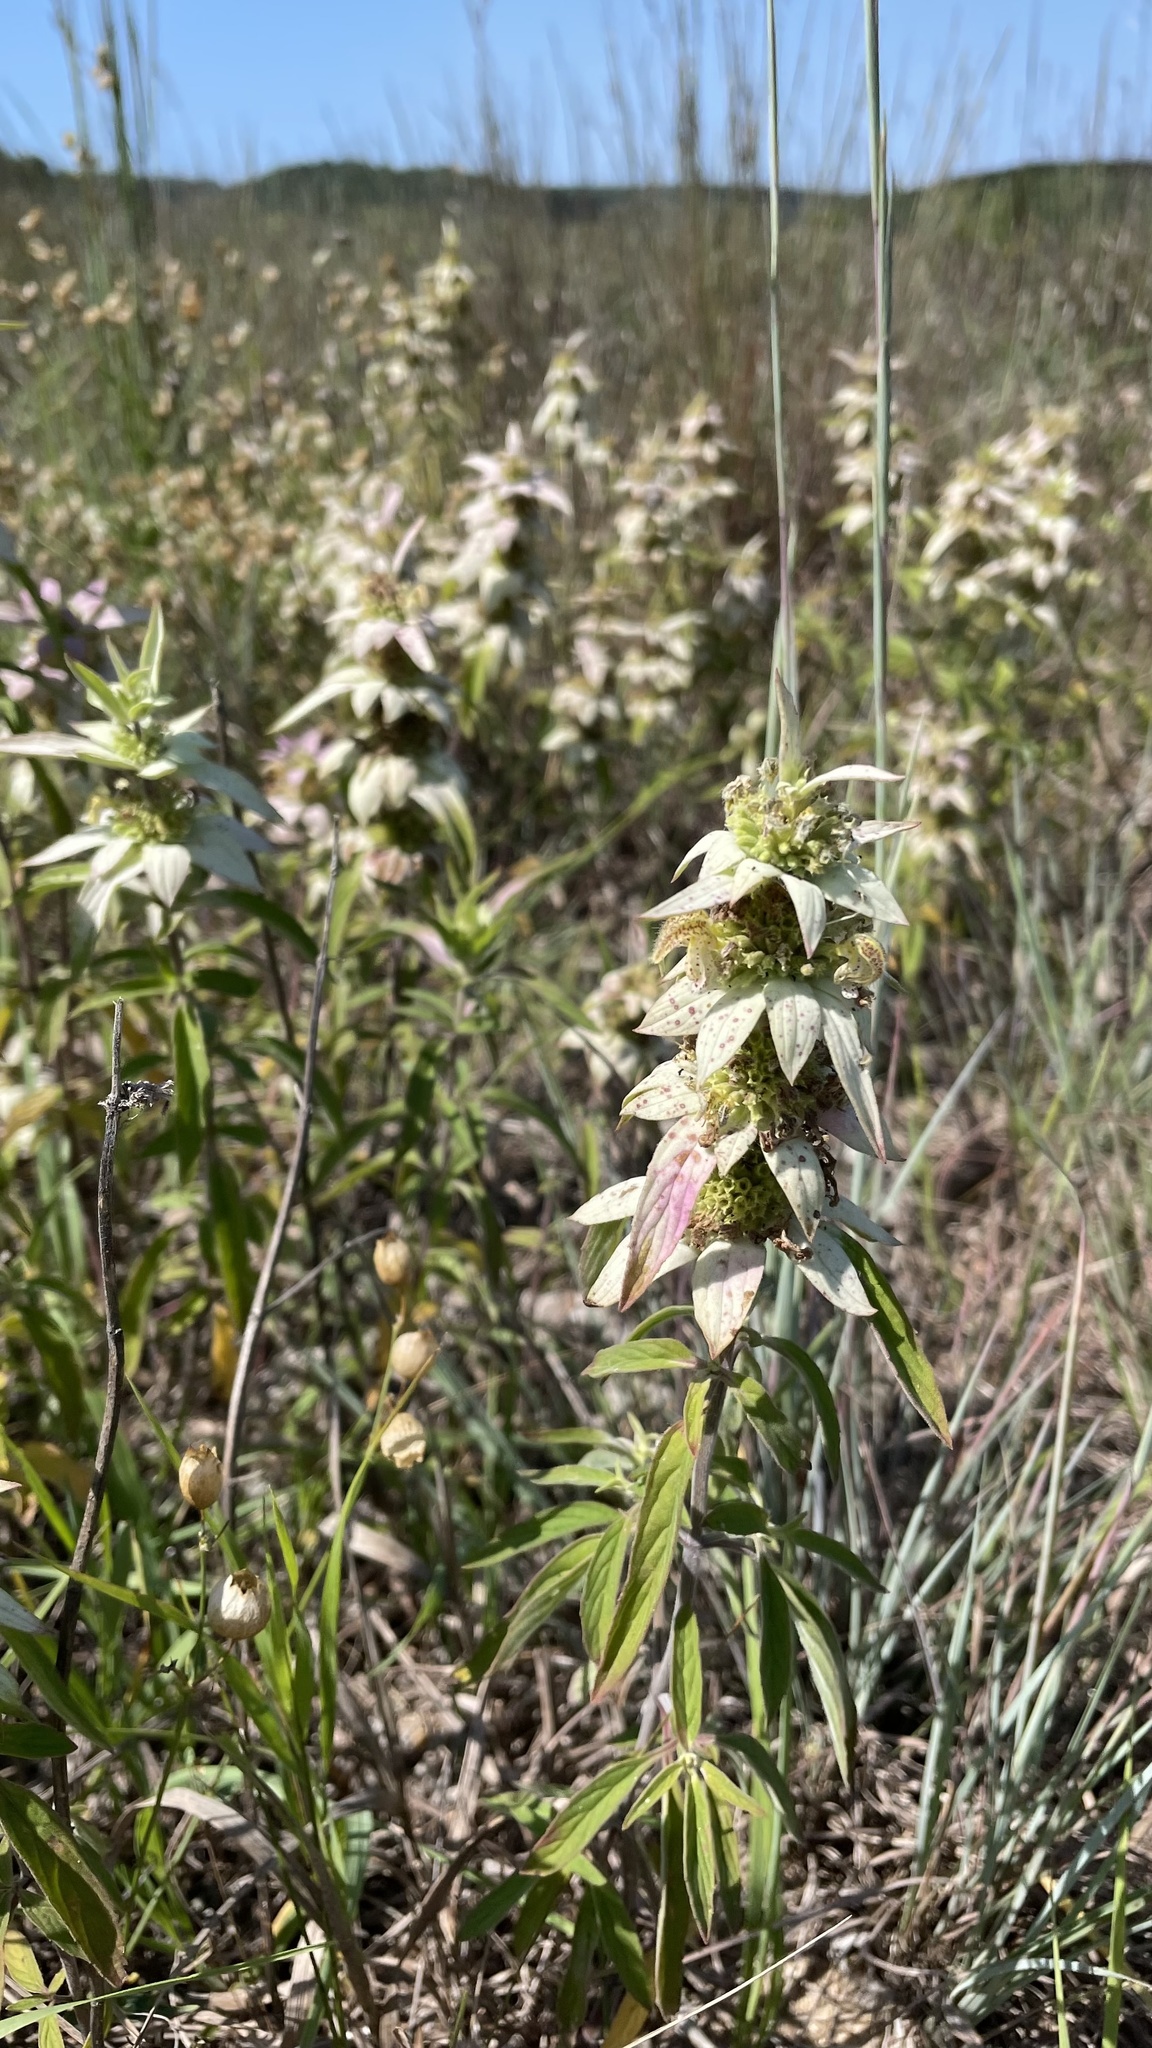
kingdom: Plantae
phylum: Tracheophyta
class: Magnoliopsida
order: Lamiales
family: Lamiaceae
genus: Monarda
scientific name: Monarda punctata
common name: Dotted monarda
